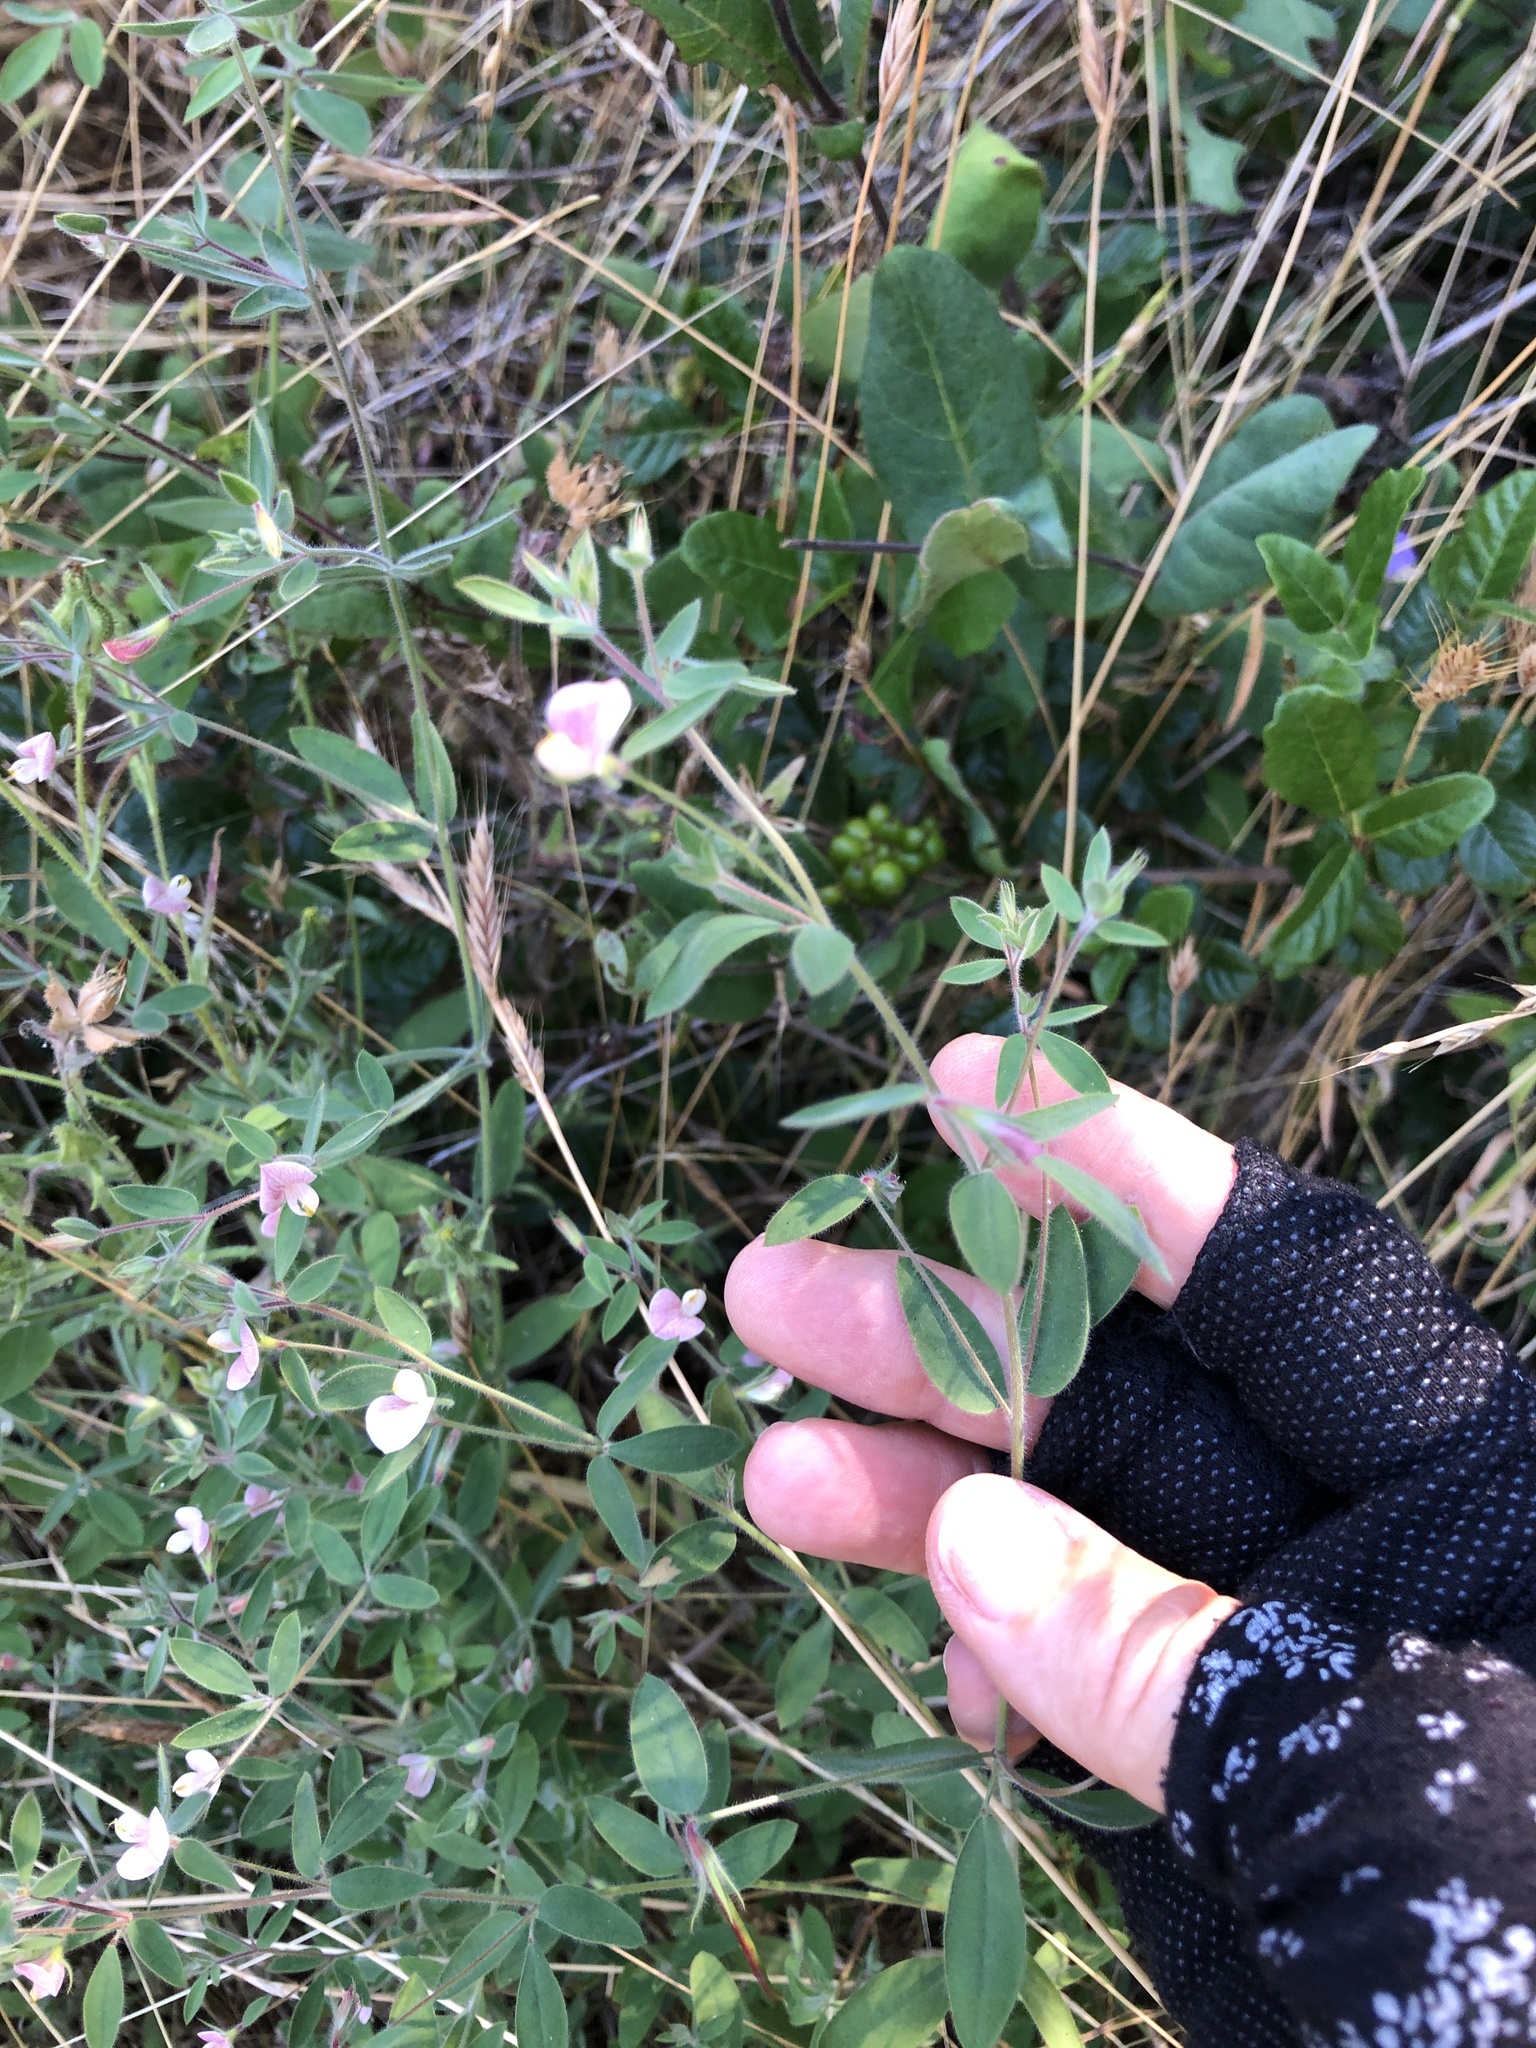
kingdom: Plantae
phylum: Tracheophyta
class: Magnoliopsida
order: Fabales
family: Fabaceae
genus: Acmispon
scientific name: Acmispon americanus
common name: American bird's-foot trefoil
